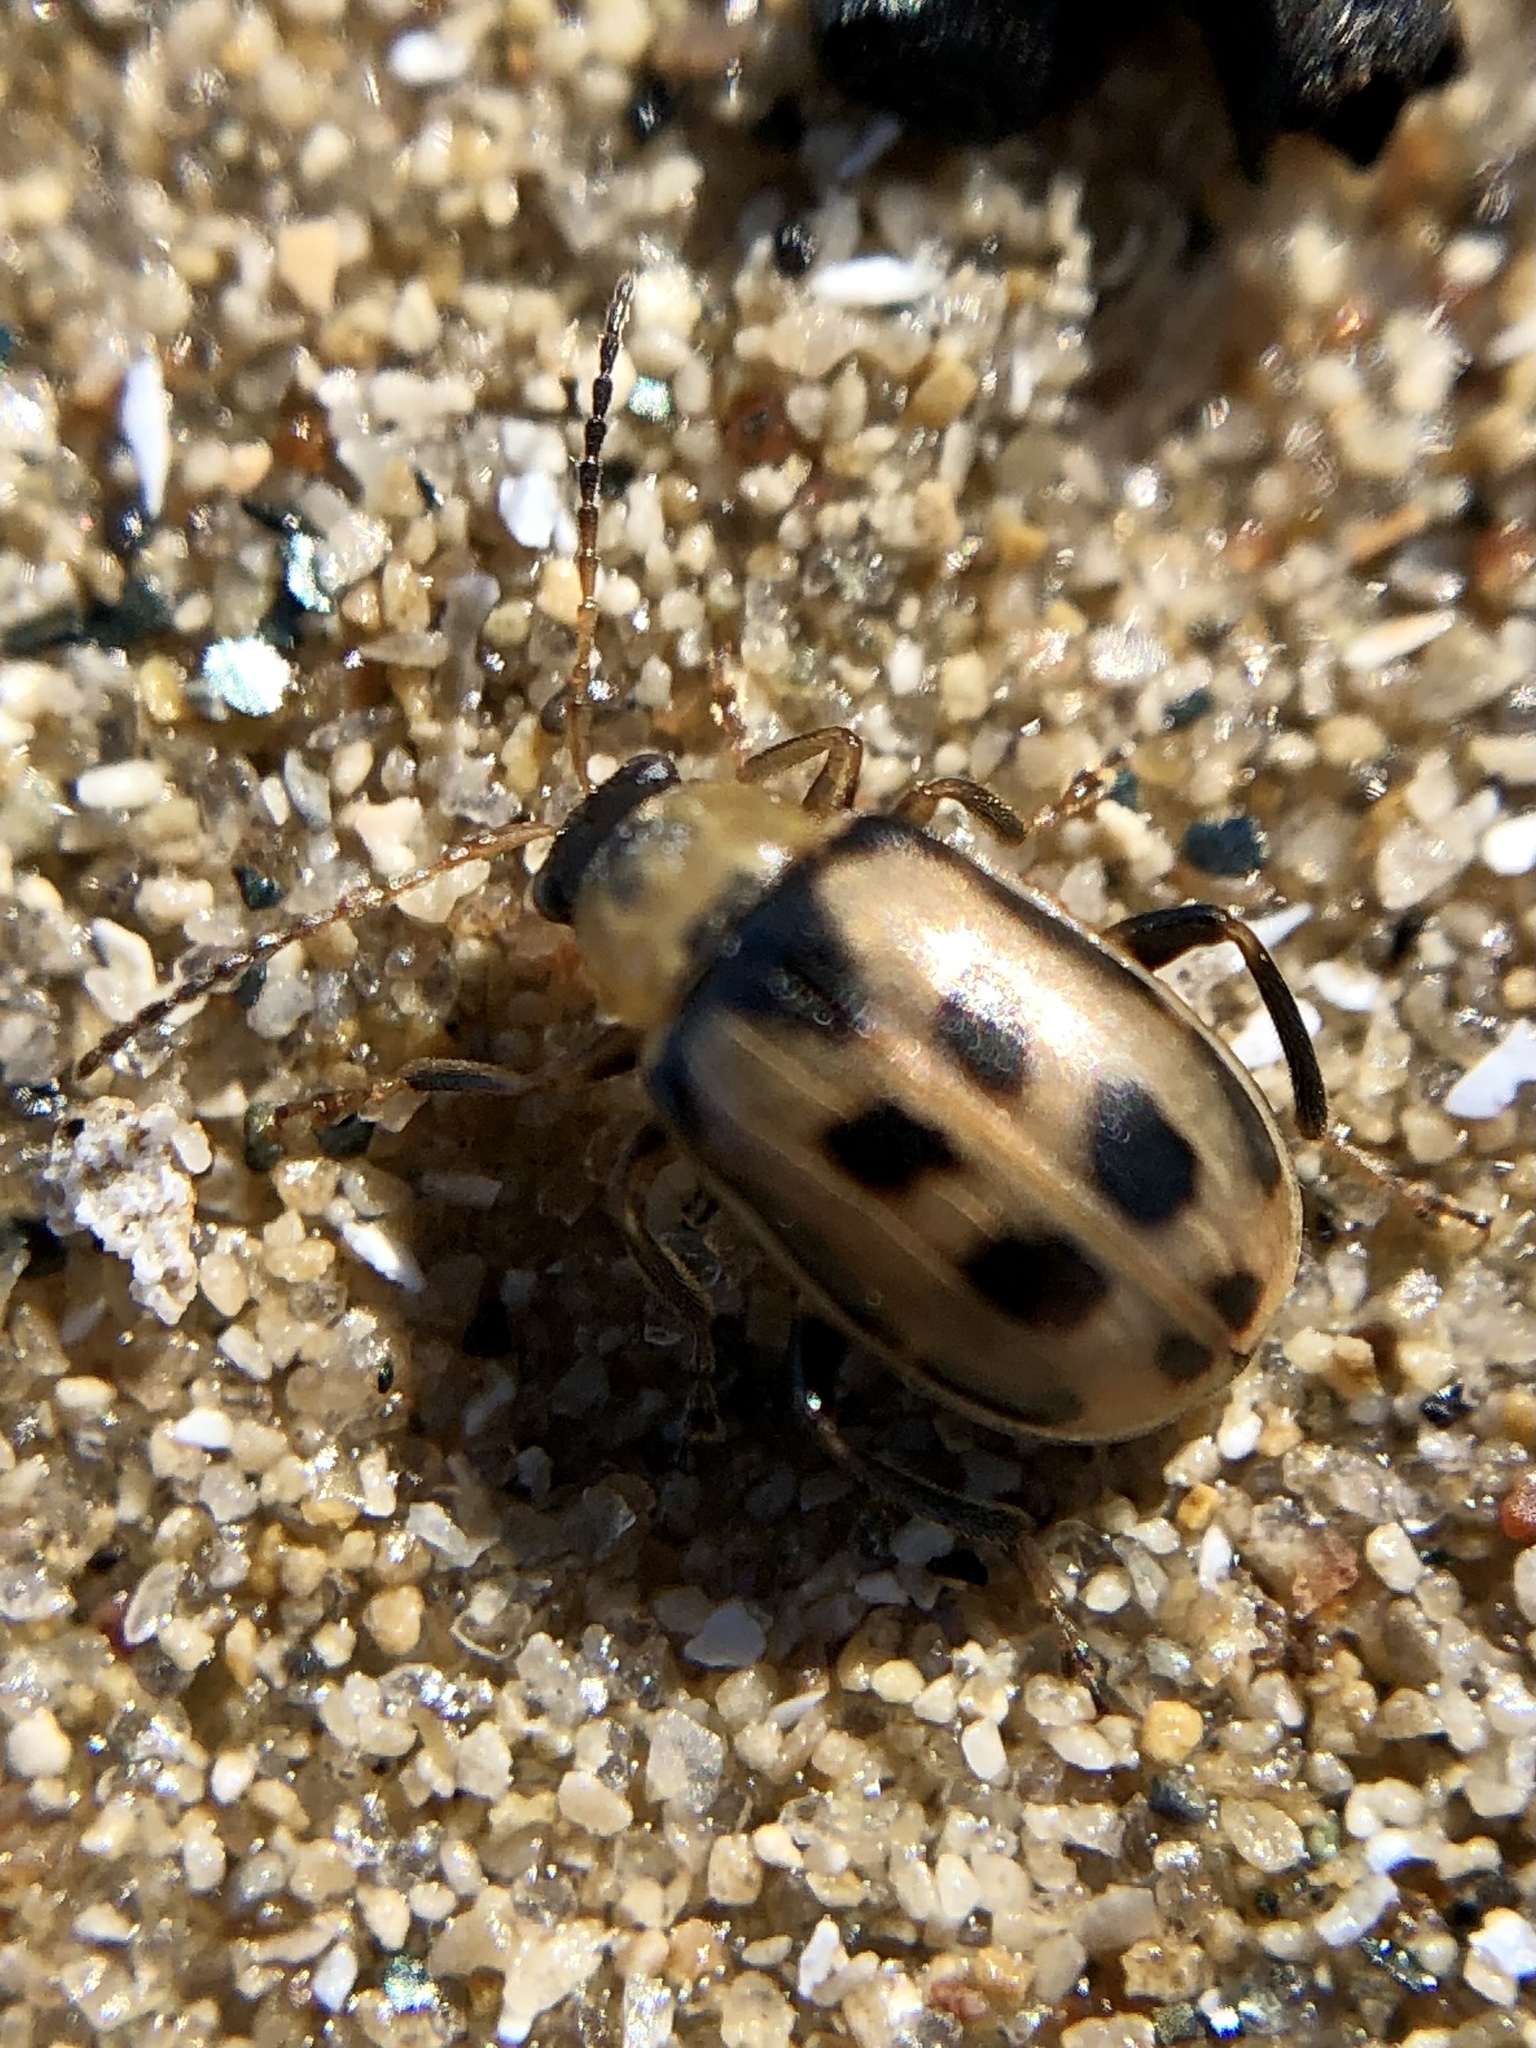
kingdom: Animalia
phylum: Arthropoda
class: Insecta
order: Coleoptera
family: Chrysomelidae
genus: Cerotoma
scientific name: Cerotoma trifurcata
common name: Bean leaf beetle
